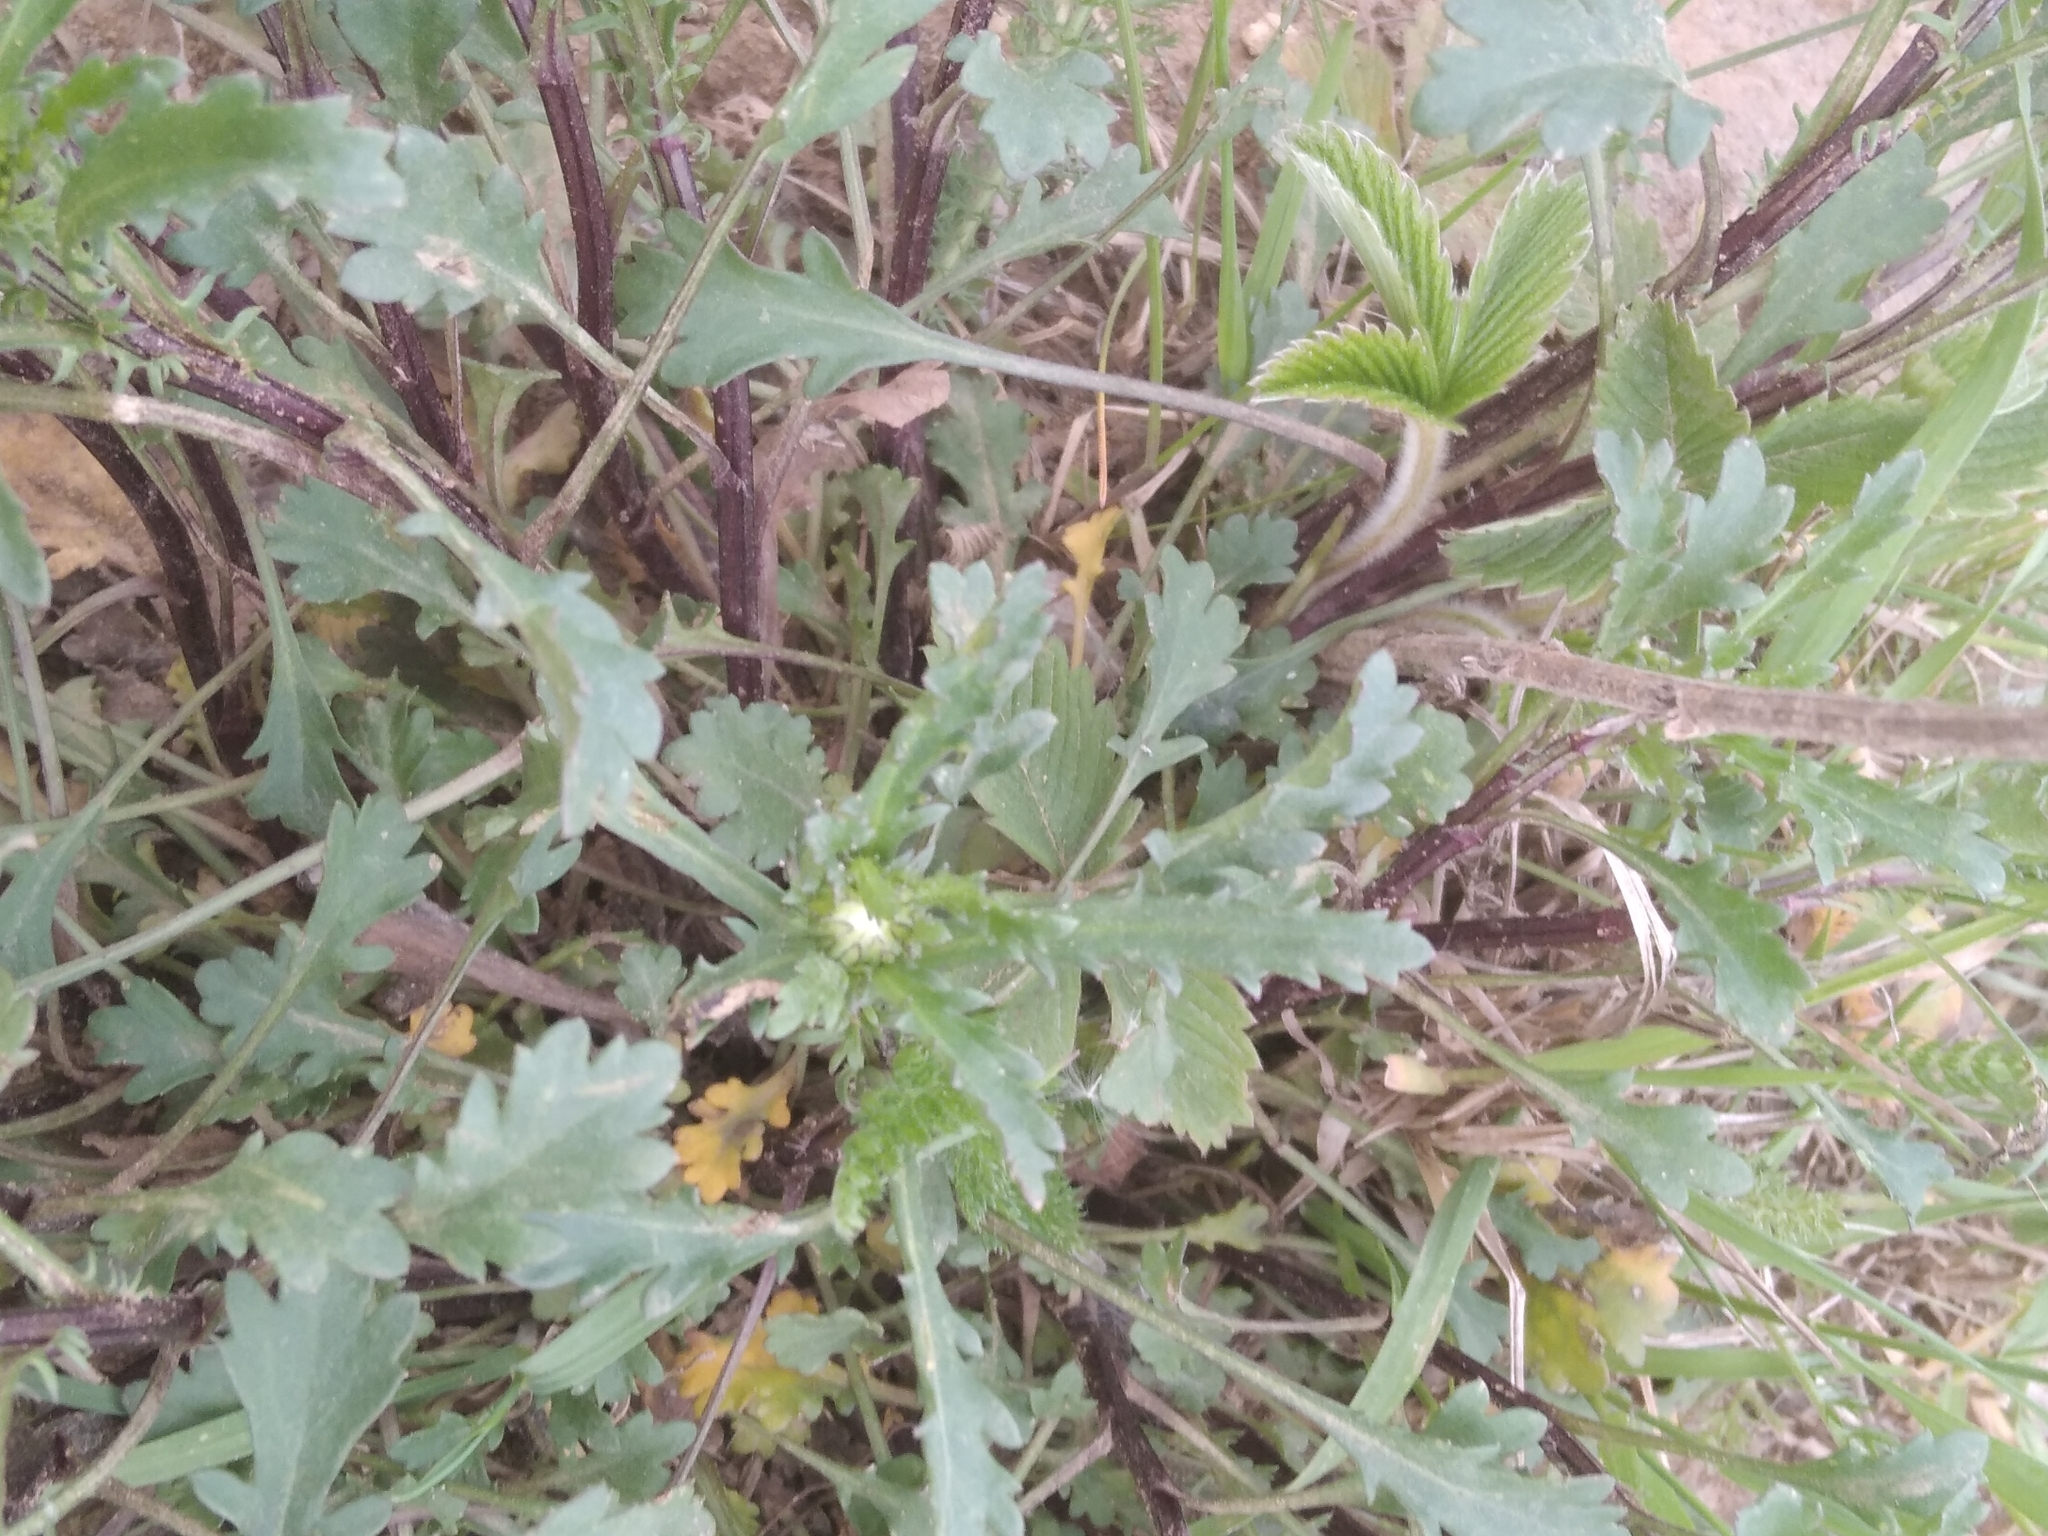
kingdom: Plantae
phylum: Tracheophyta
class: Magnoliopsida
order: Asterales
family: Asteraceae
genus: Leucanthemum
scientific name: Leucanthemum vulgare
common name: Oxeye daisy
